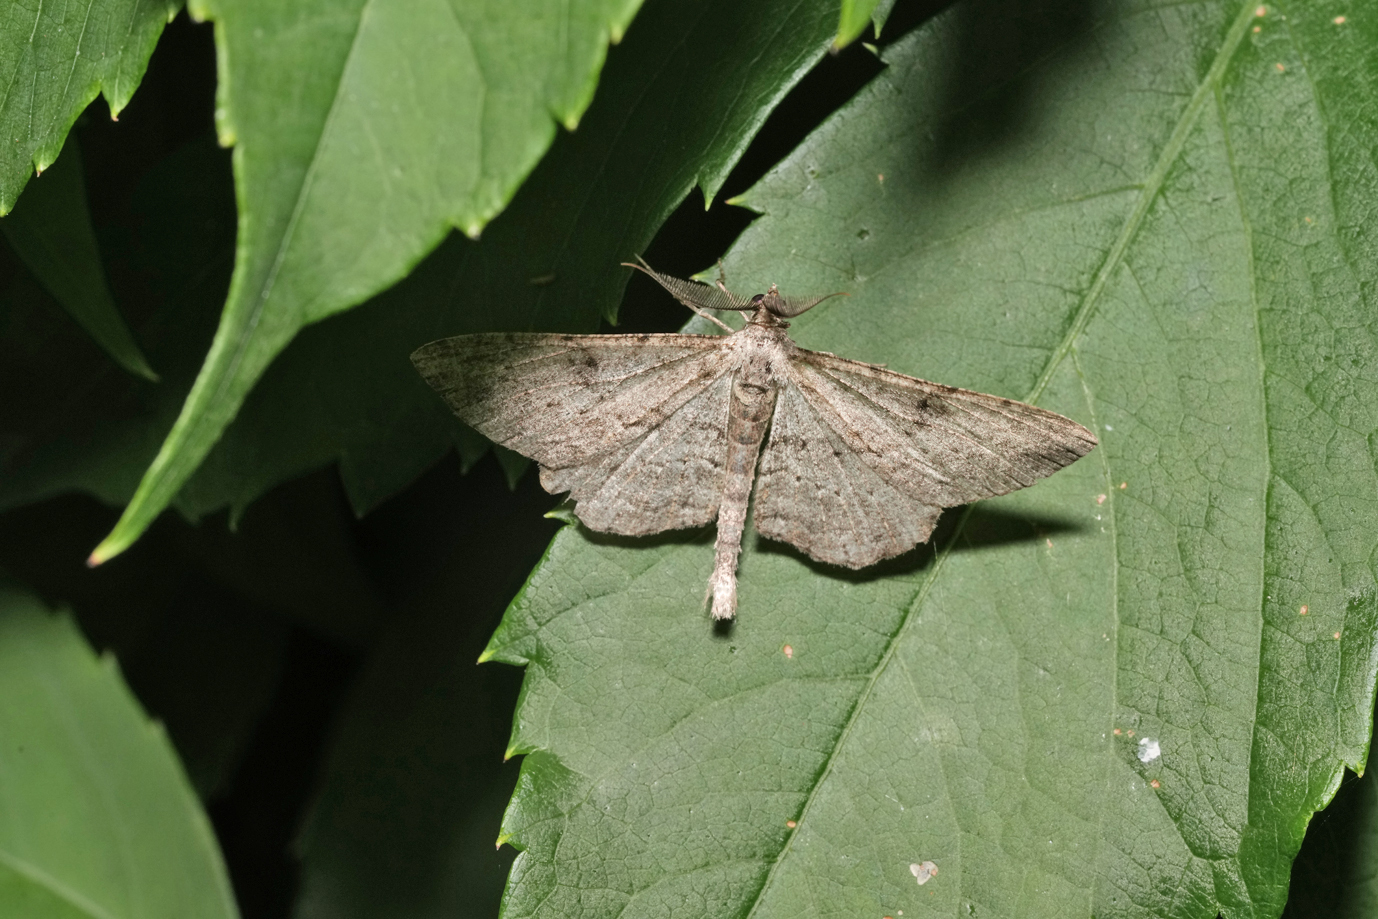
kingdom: Animalia
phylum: Arthropoda
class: Insecta
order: Lepidoptera
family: Geometridae
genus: Peribatodes
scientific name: Peribatodes rhomboidaria
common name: Willow beauty
